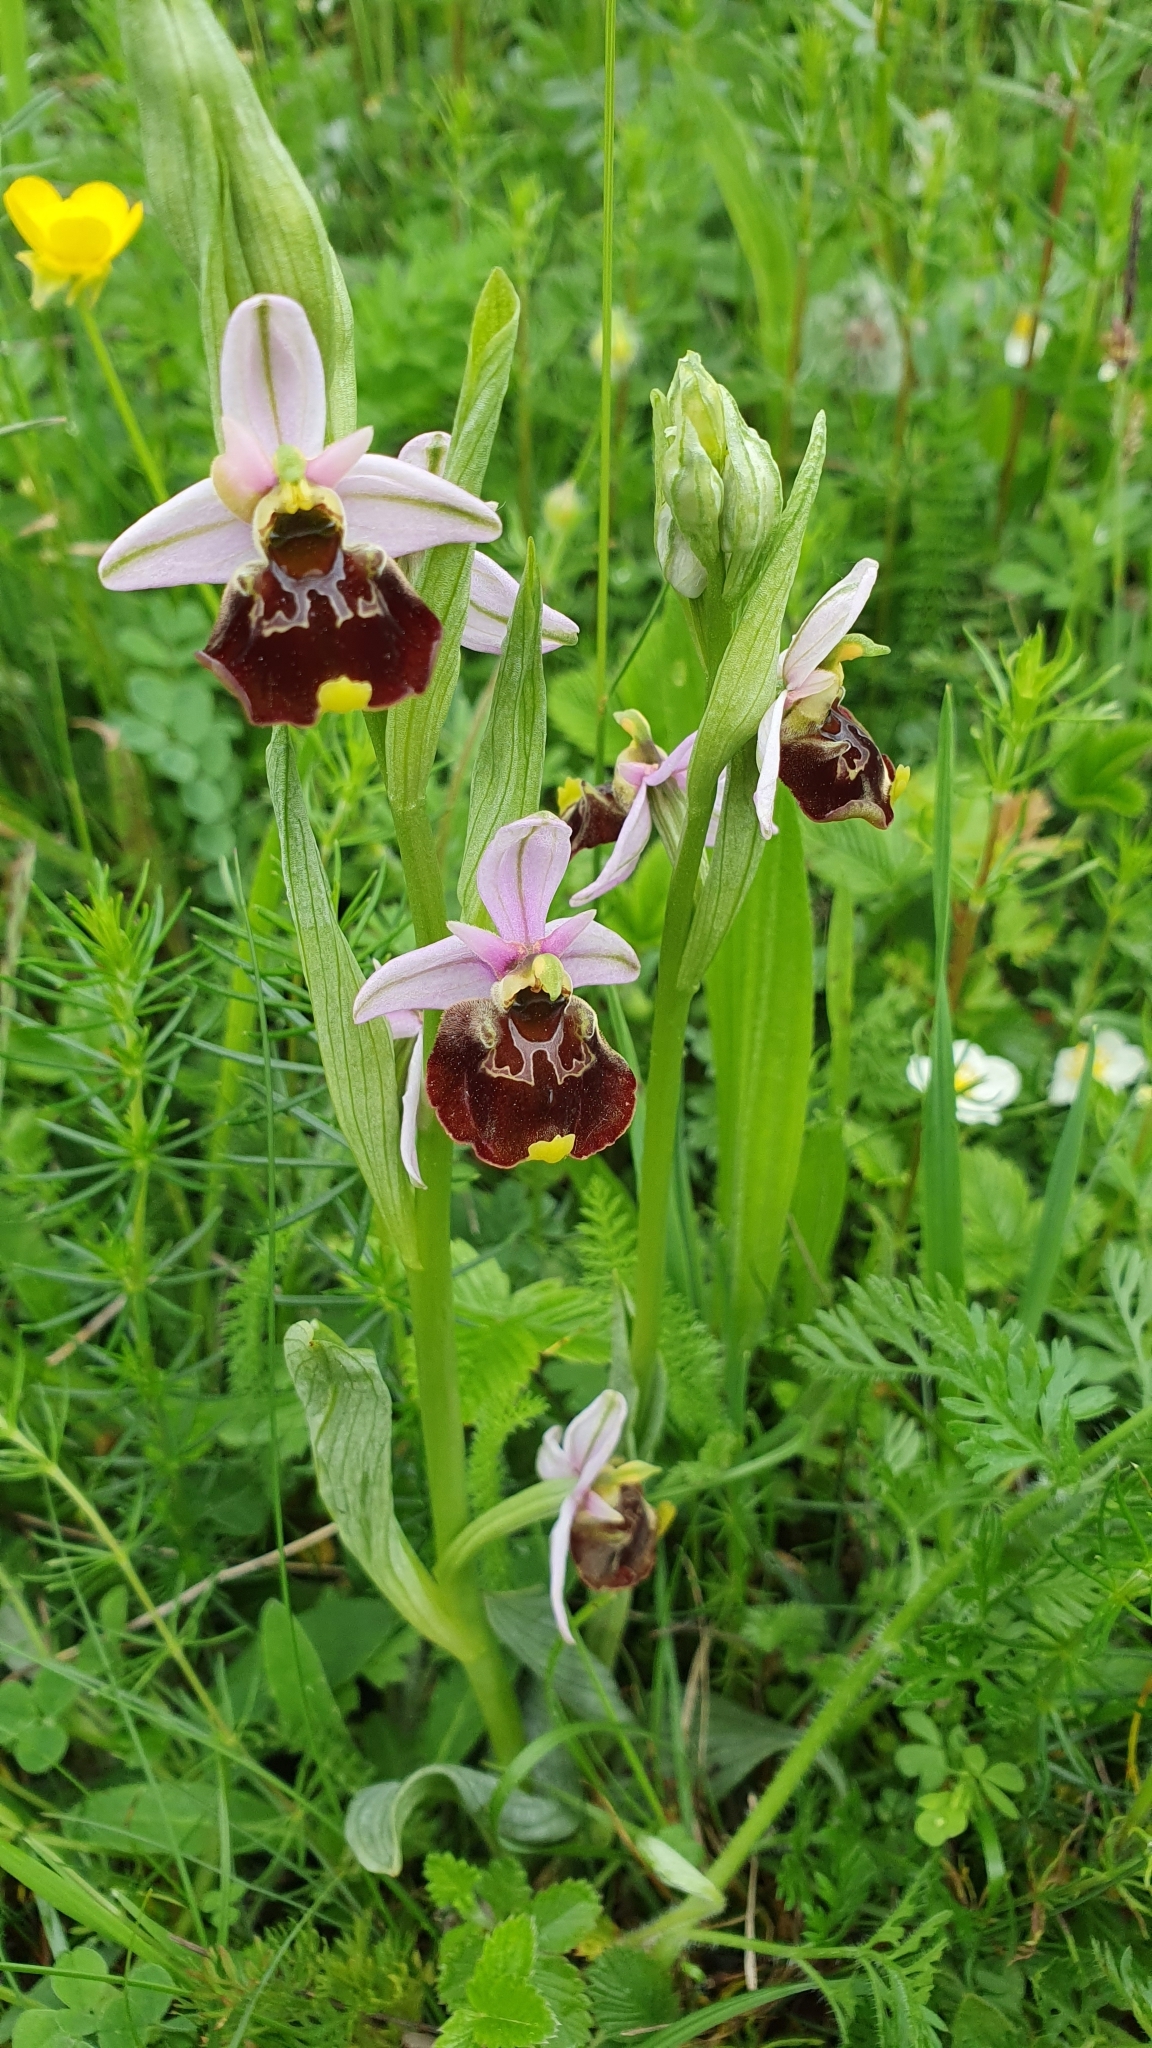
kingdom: Plantae
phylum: Tracheophyta
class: Liliopsida
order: Asparagales
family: Orchidaceae
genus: Ophrys
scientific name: Ophrys holosericea
